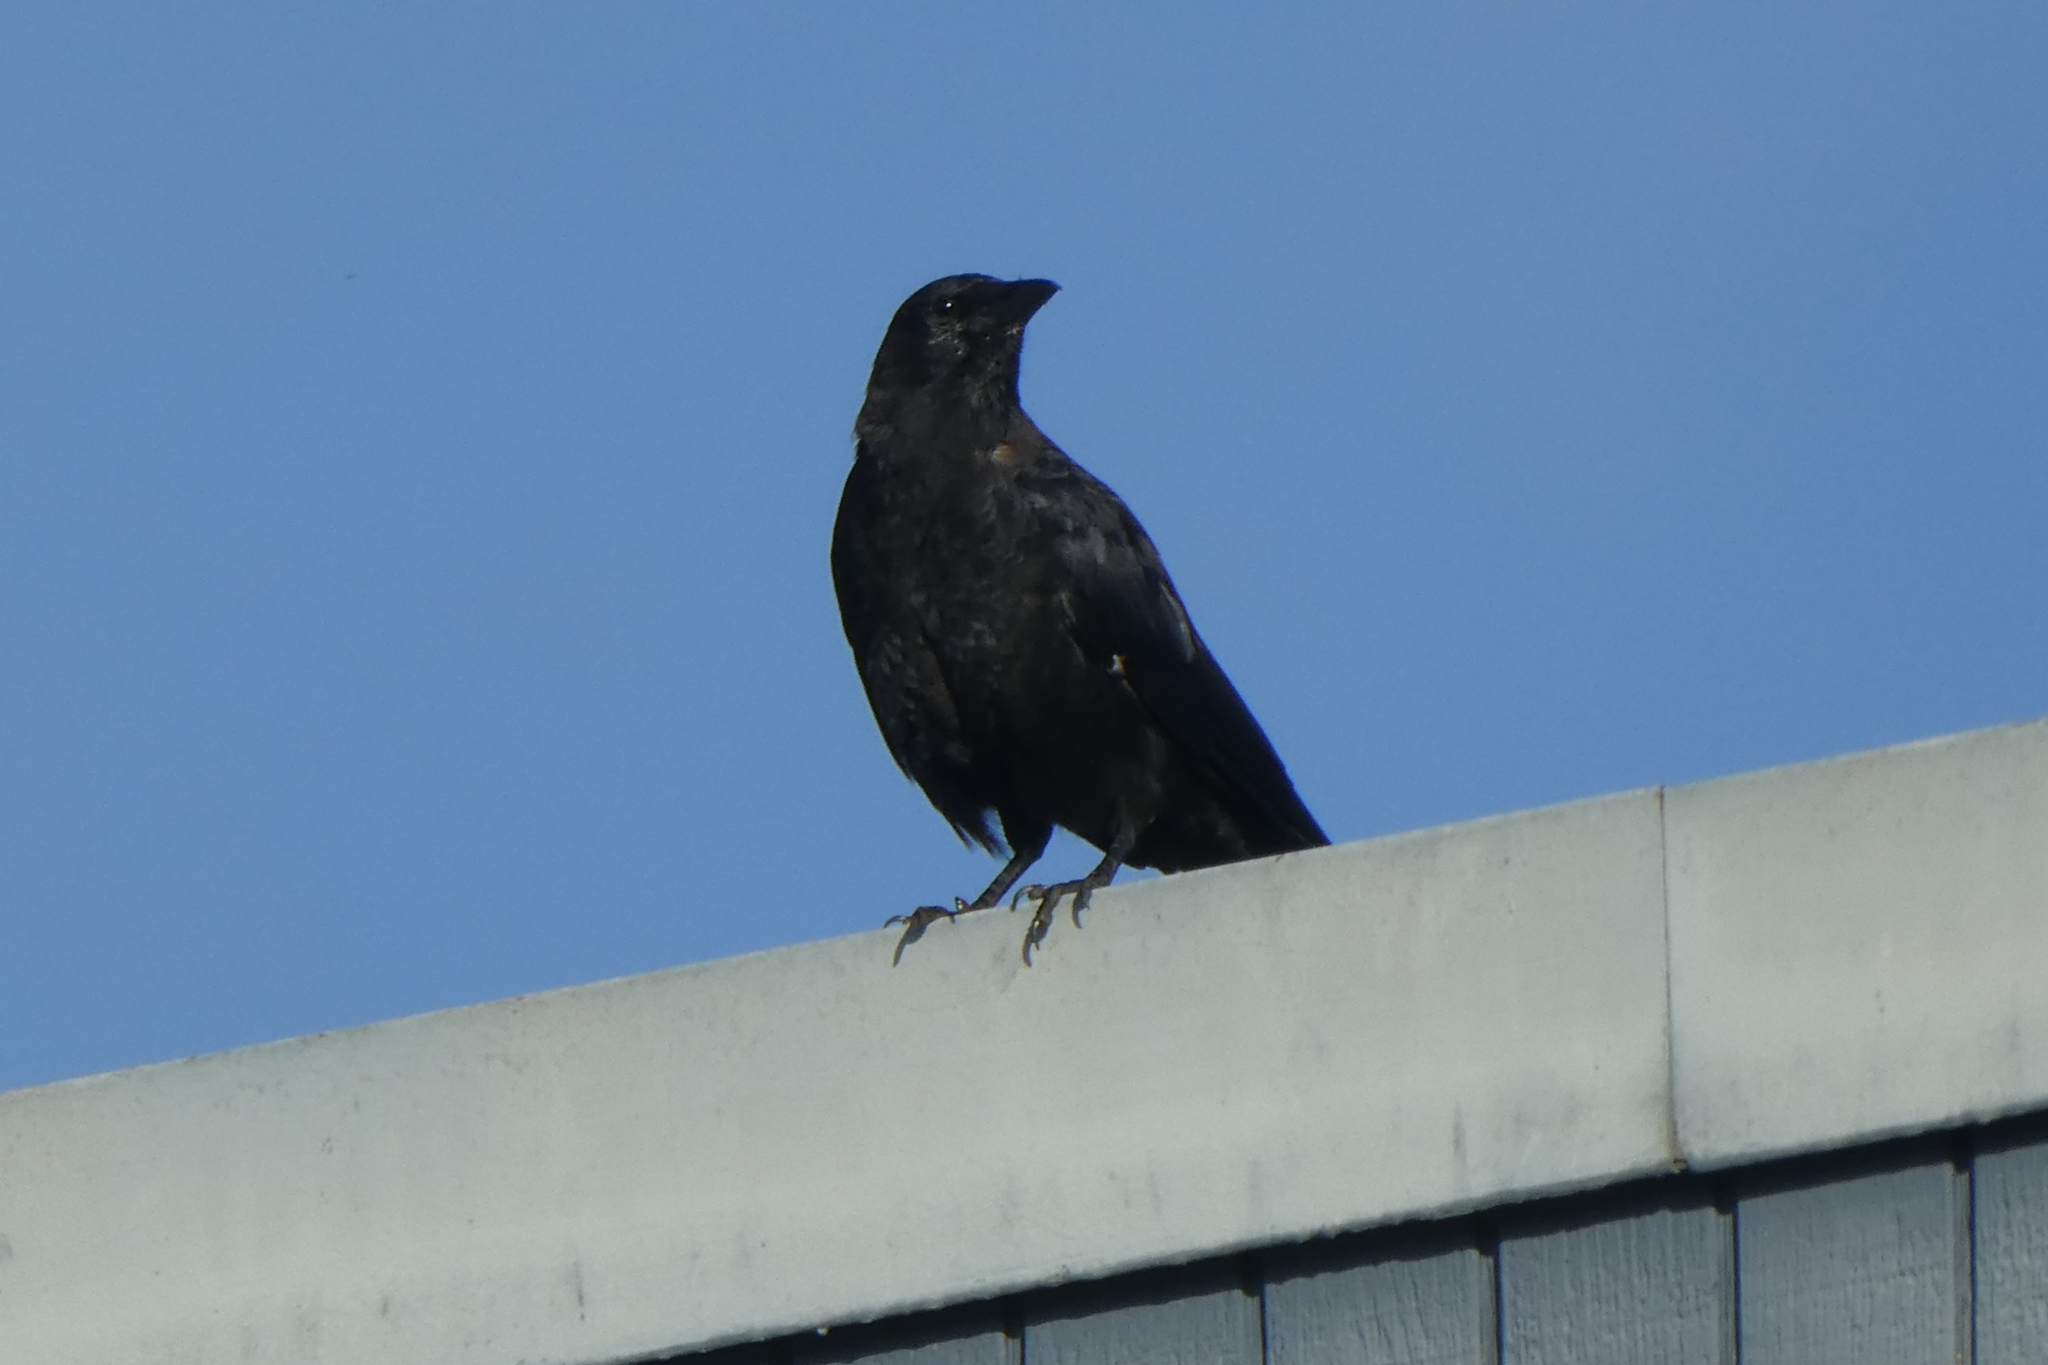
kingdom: Animalia
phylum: Chordata
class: Aves
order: Passeriformes
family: Corvidae
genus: Corvus
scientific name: Corvus brachyrhynchos
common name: American crow
